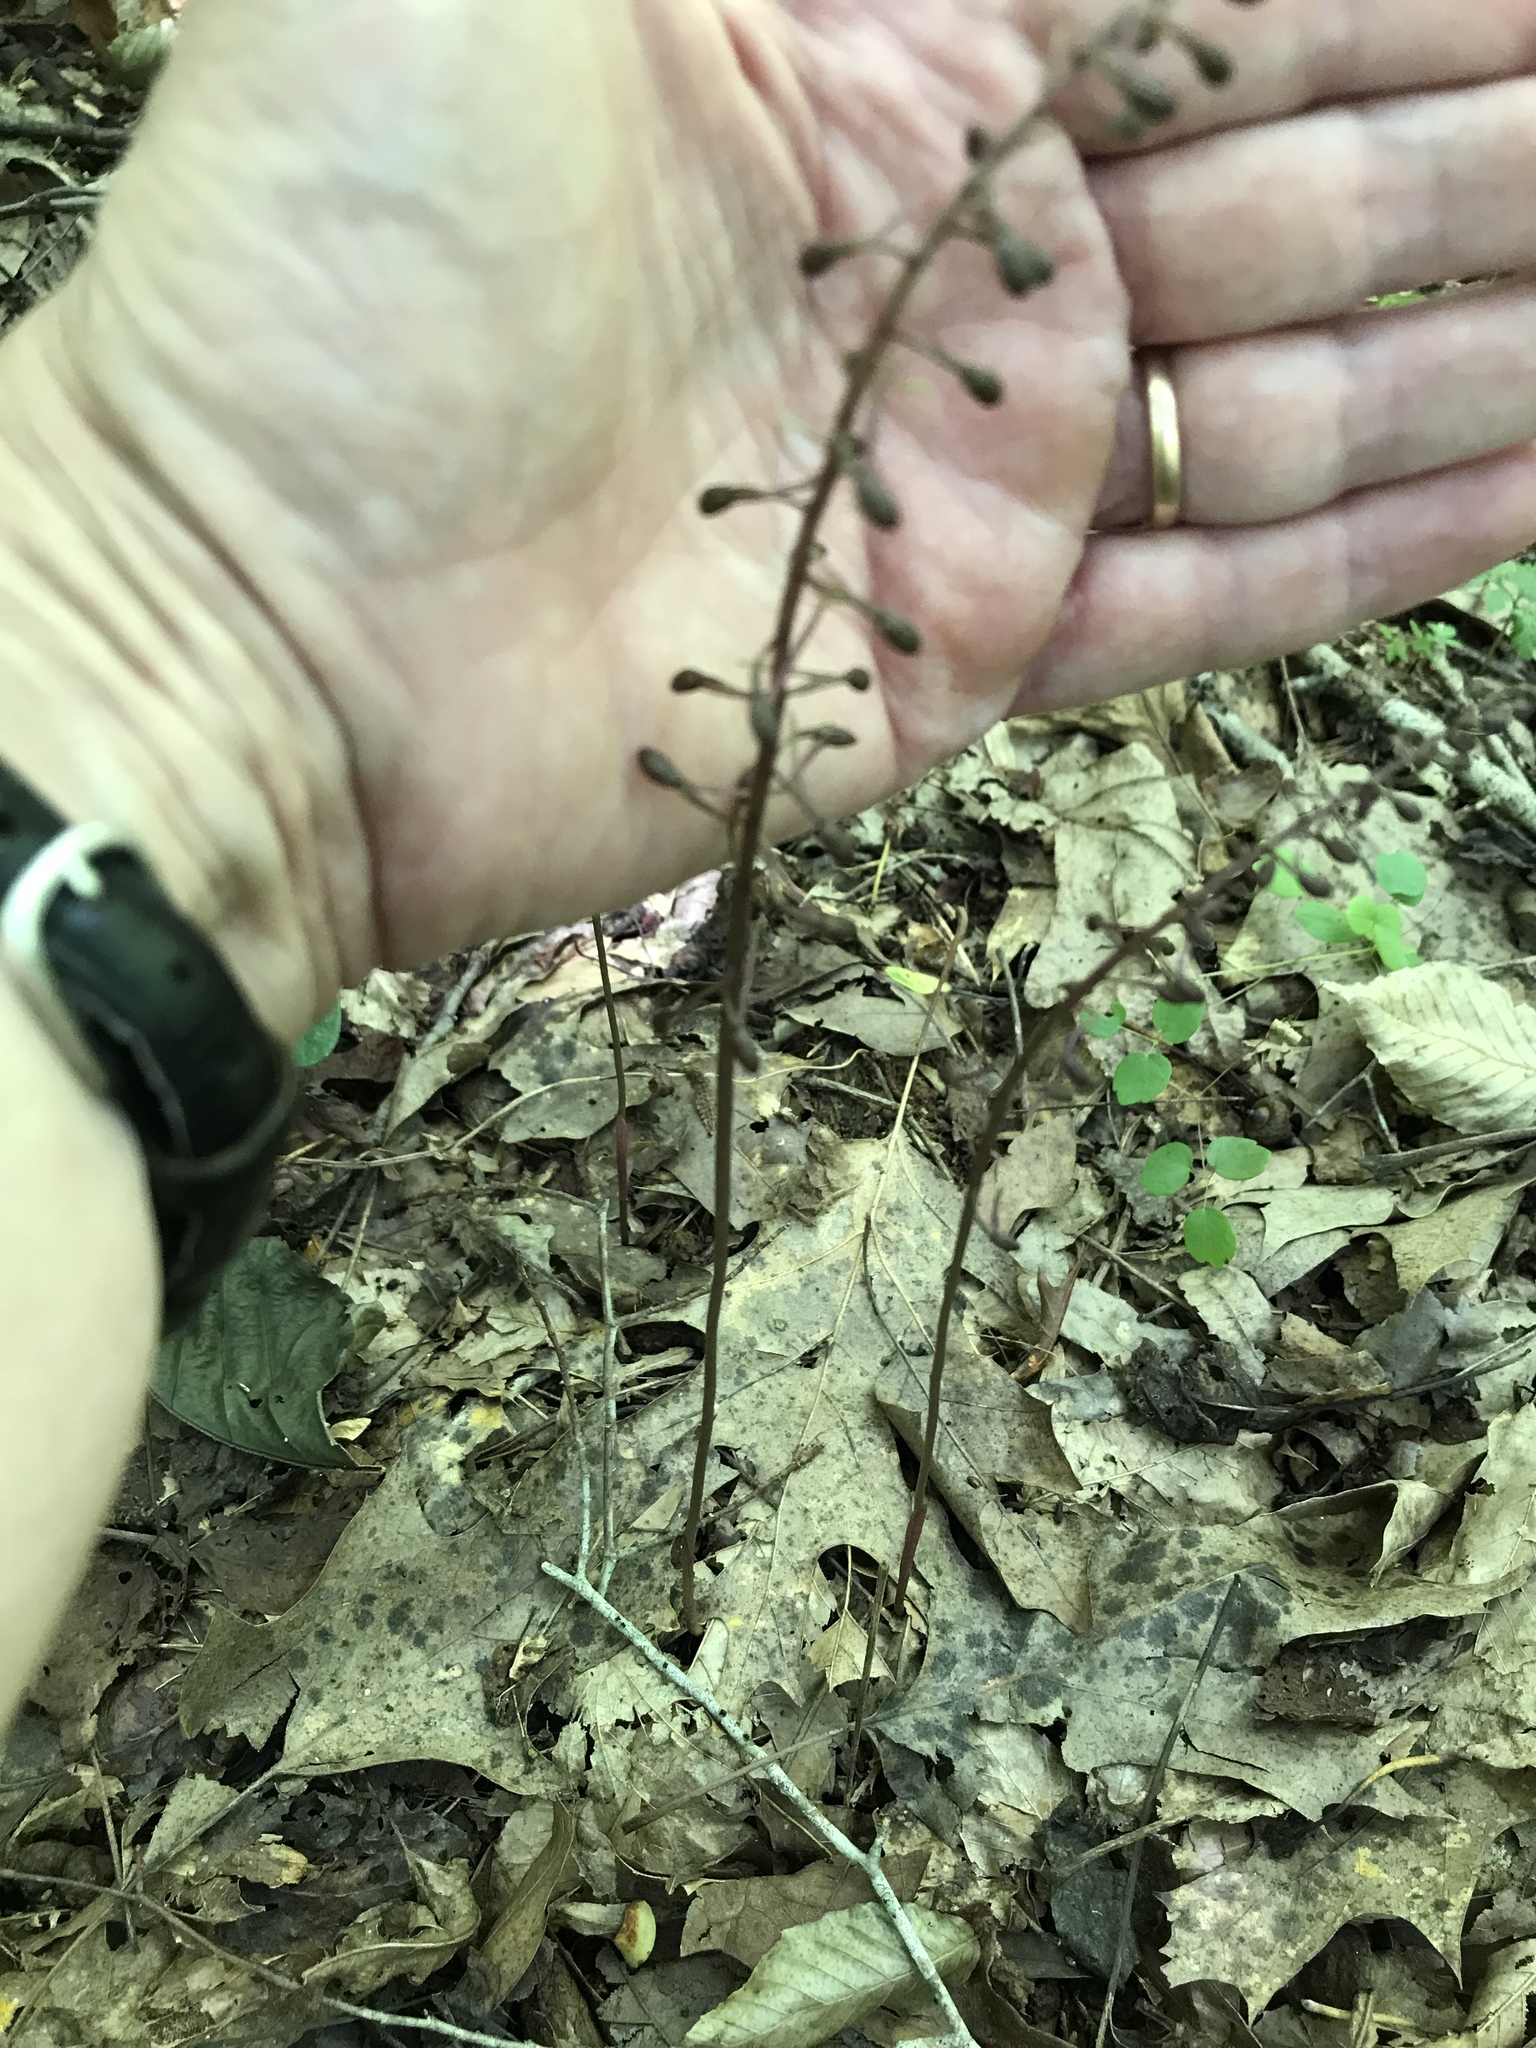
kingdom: Plantae
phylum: Tracheophyta
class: Liliopsida
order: Asparagales
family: Orchidaceae
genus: Tipularia
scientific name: Tipularia discolor
